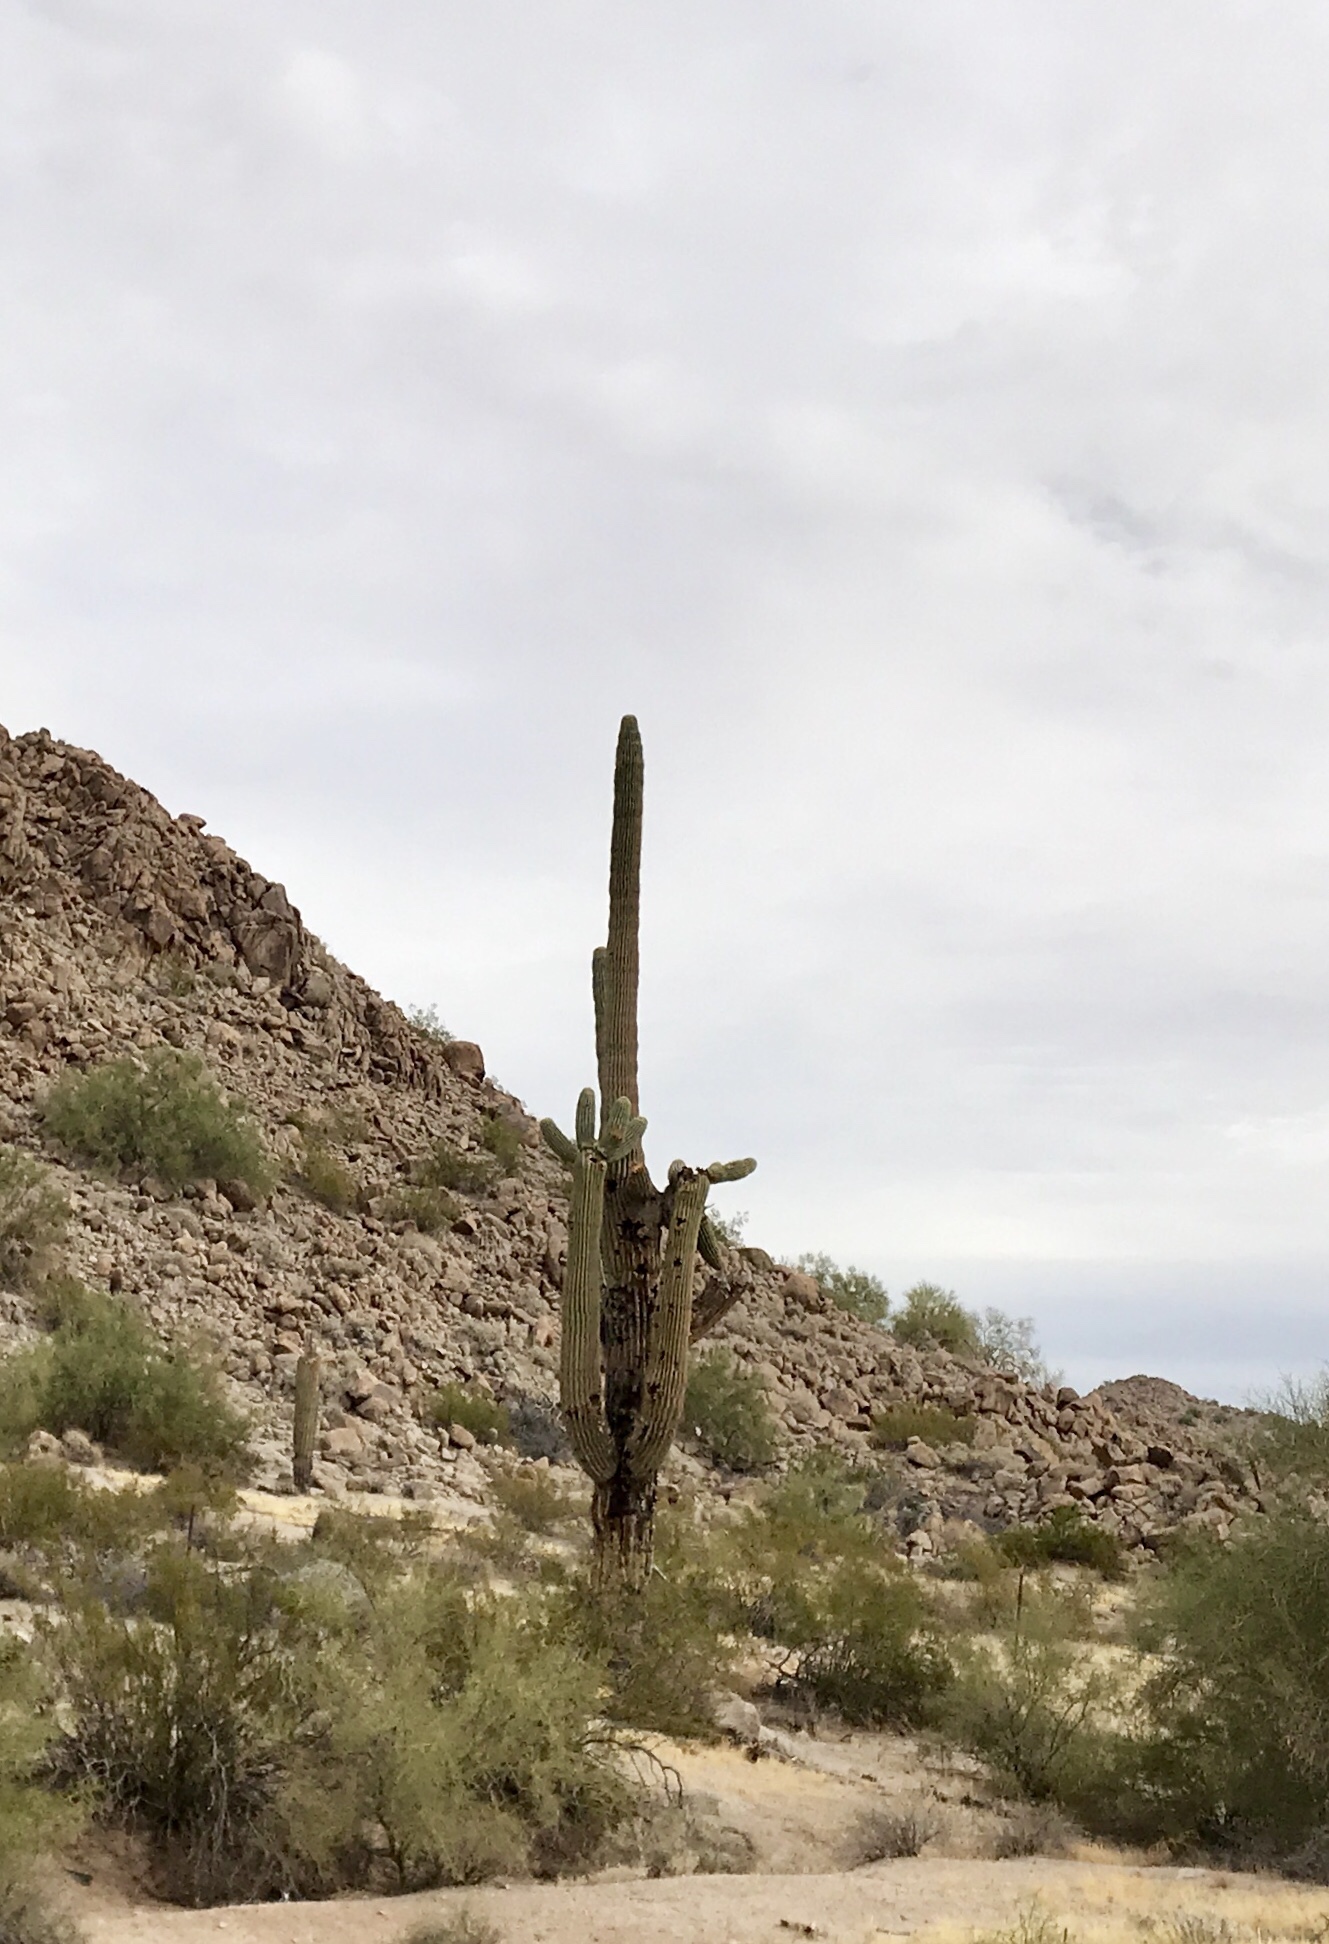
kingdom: Plantae
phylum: Tracheophyta
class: Magnoliopsida
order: Caryophyllales
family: Cactaceae
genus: Carnegiea
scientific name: Carnegiea gigantea
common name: Saguaro
